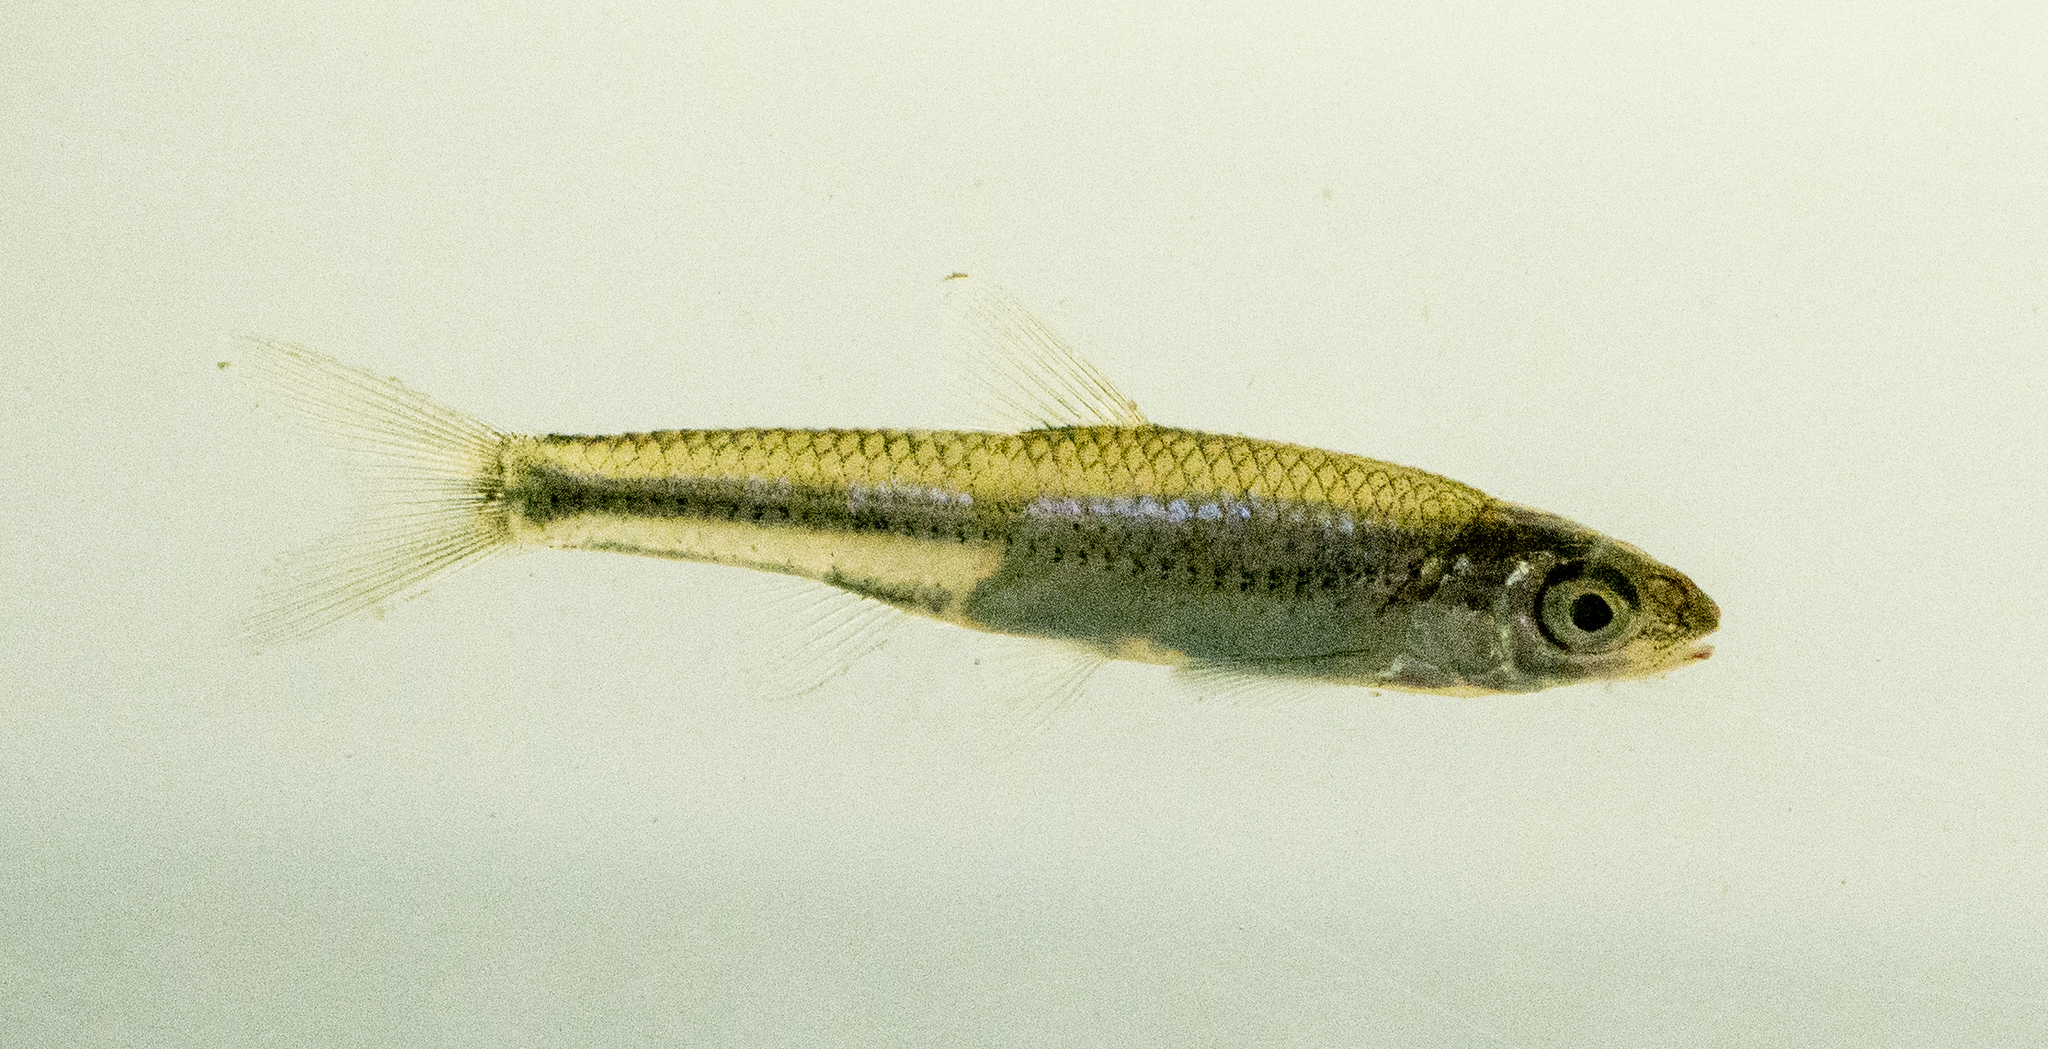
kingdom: Animalia
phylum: Chordata
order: Cypriniformes
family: Cyprinidae
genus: Notropis
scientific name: Notropis
